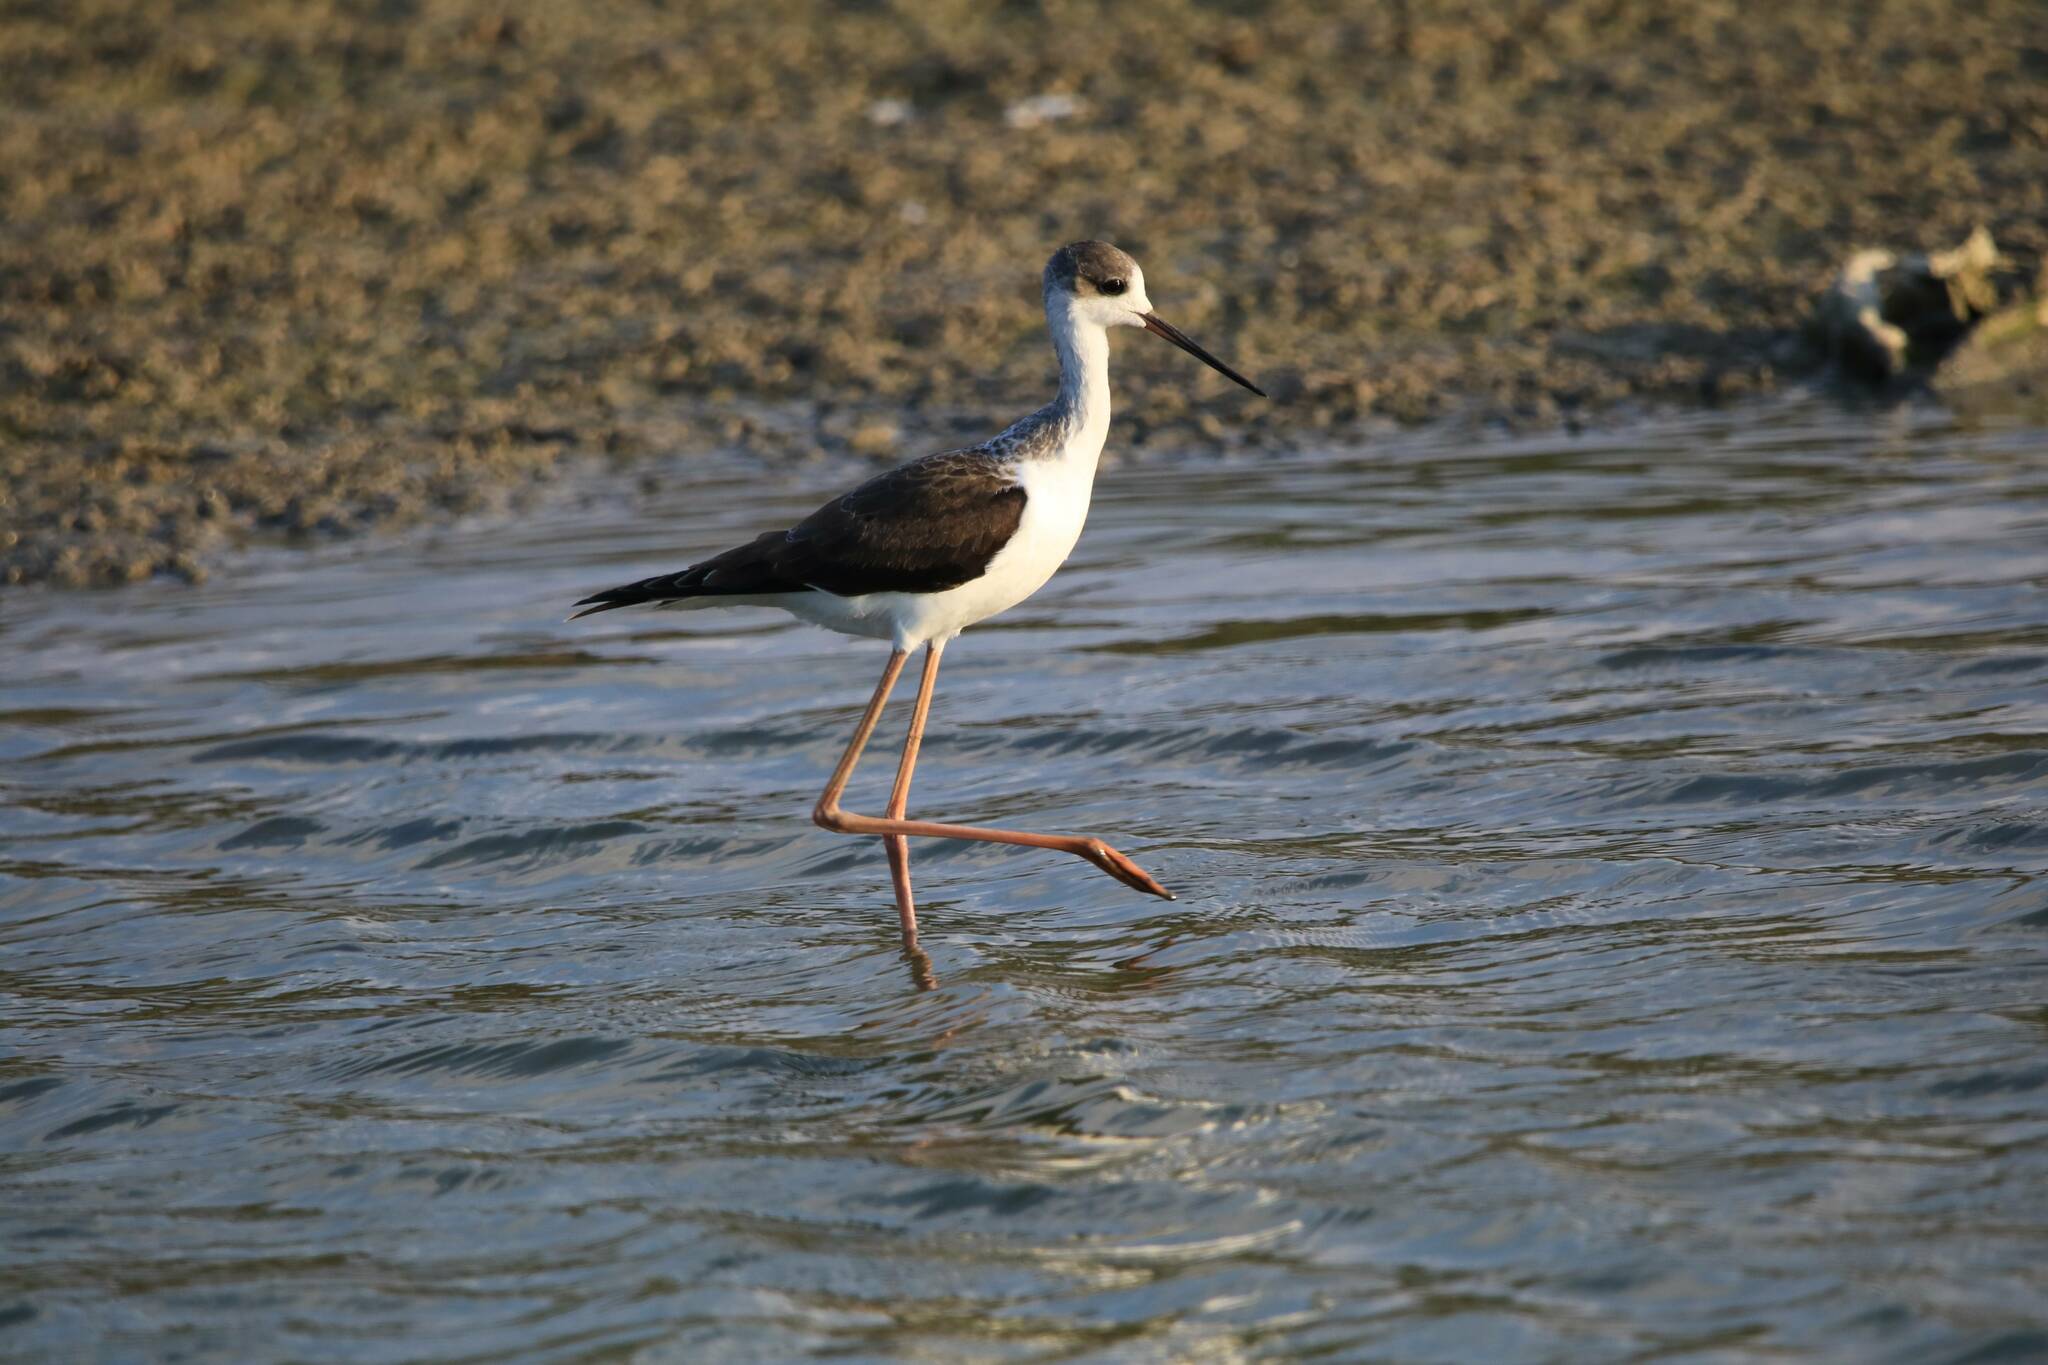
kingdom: Animalia
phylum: Chordata
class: Aves
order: Charadriiformes
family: Recurvirostridae
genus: Himantopus
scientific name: Himantopus himantopus
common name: Black-winged stilt
